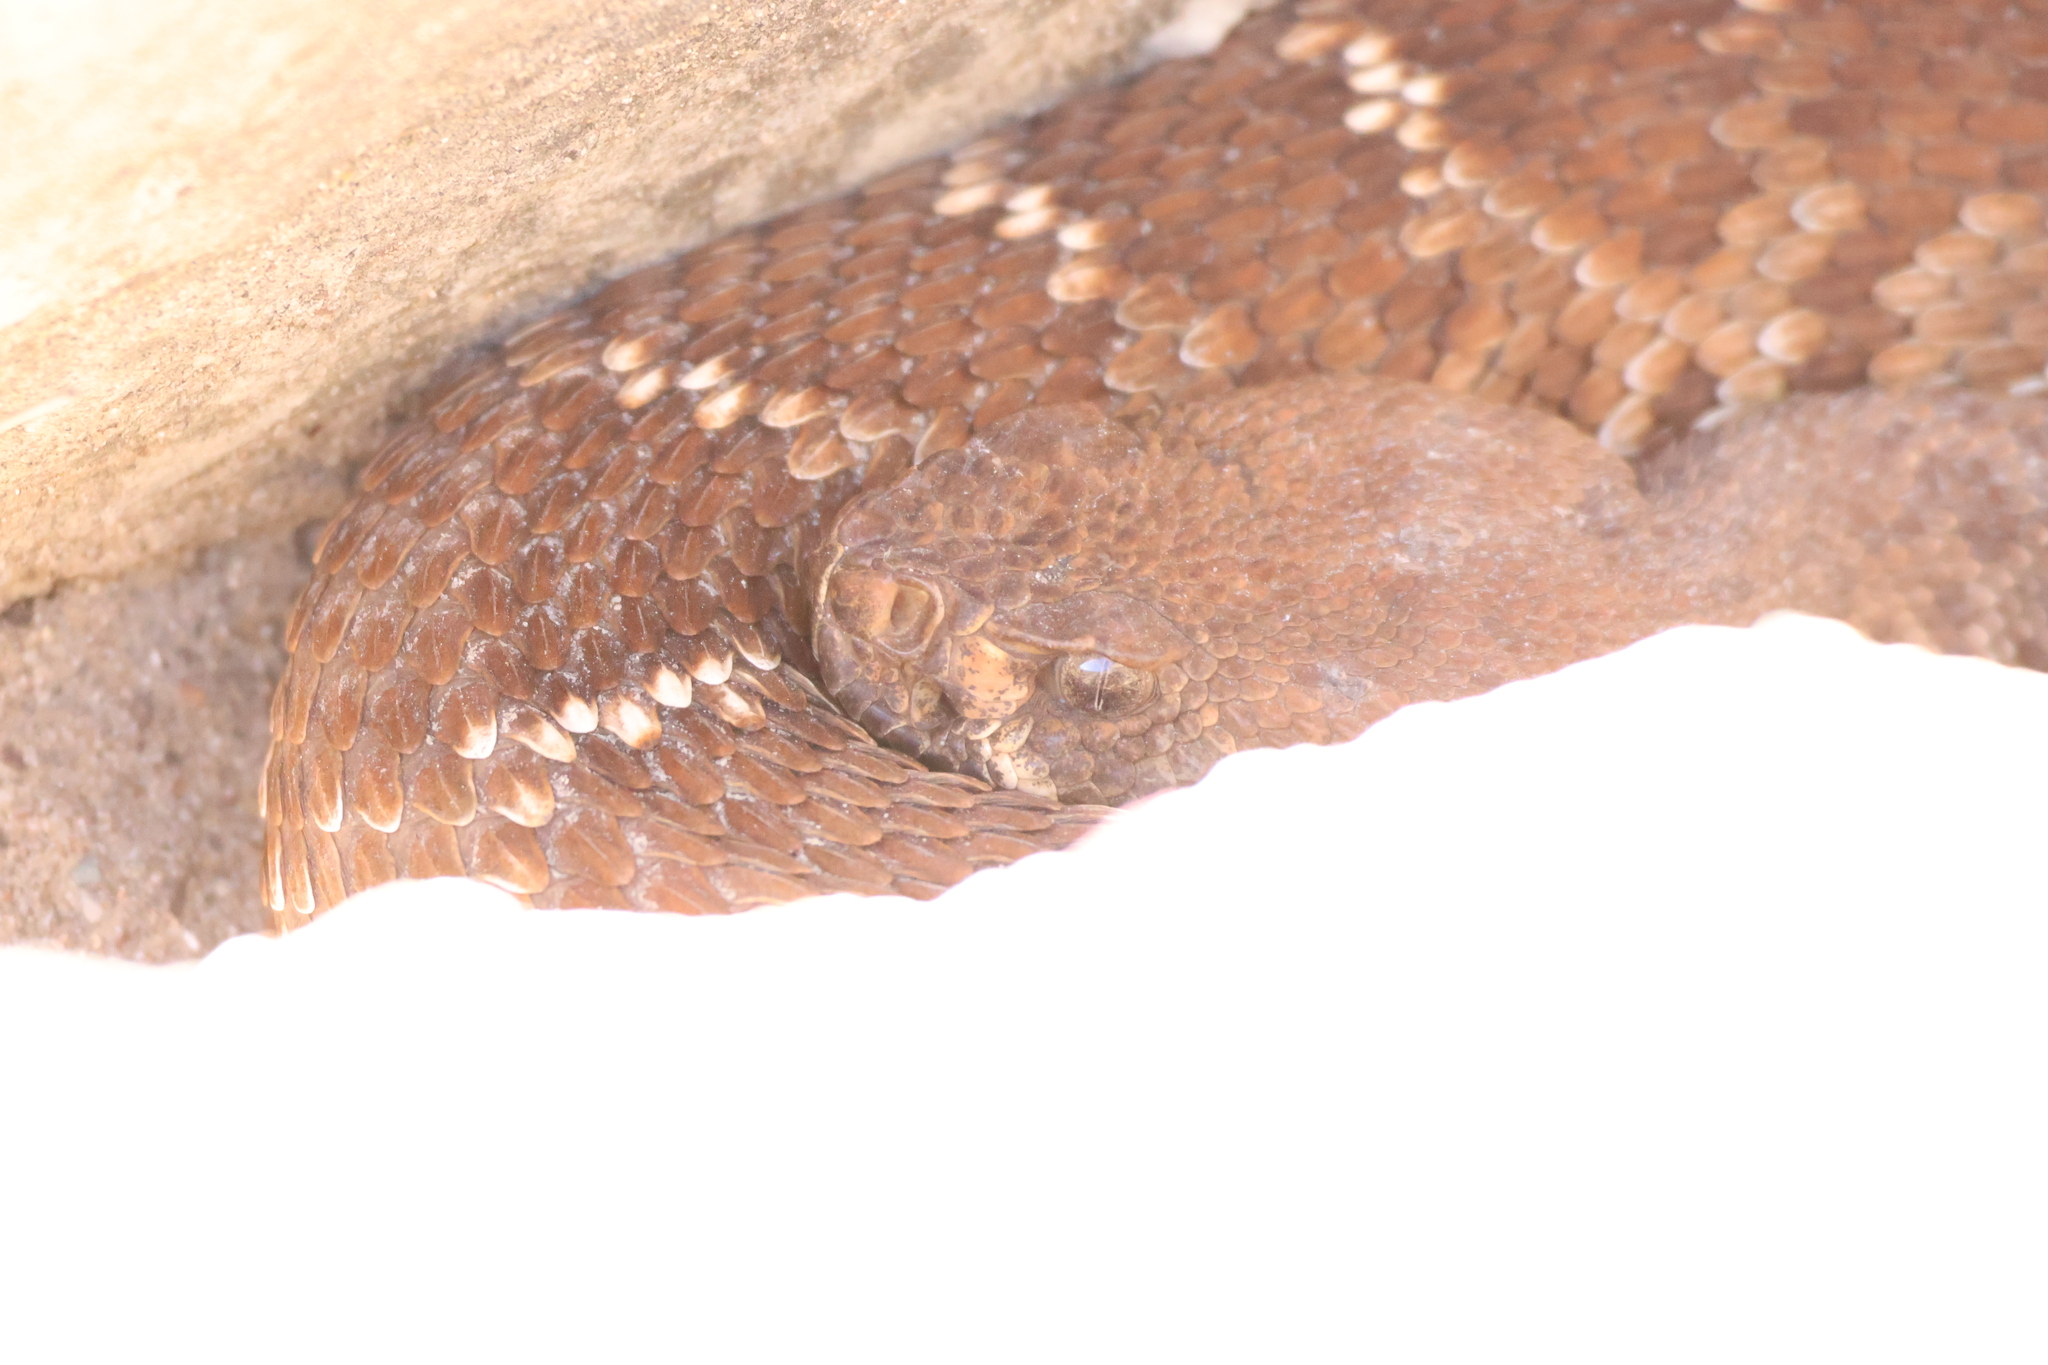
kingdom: Animalia
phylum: Chordata
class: Squamata
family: Viperidae
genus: Crotalus
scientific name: Crotalus ruber
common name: Red diamond rattlesnake
